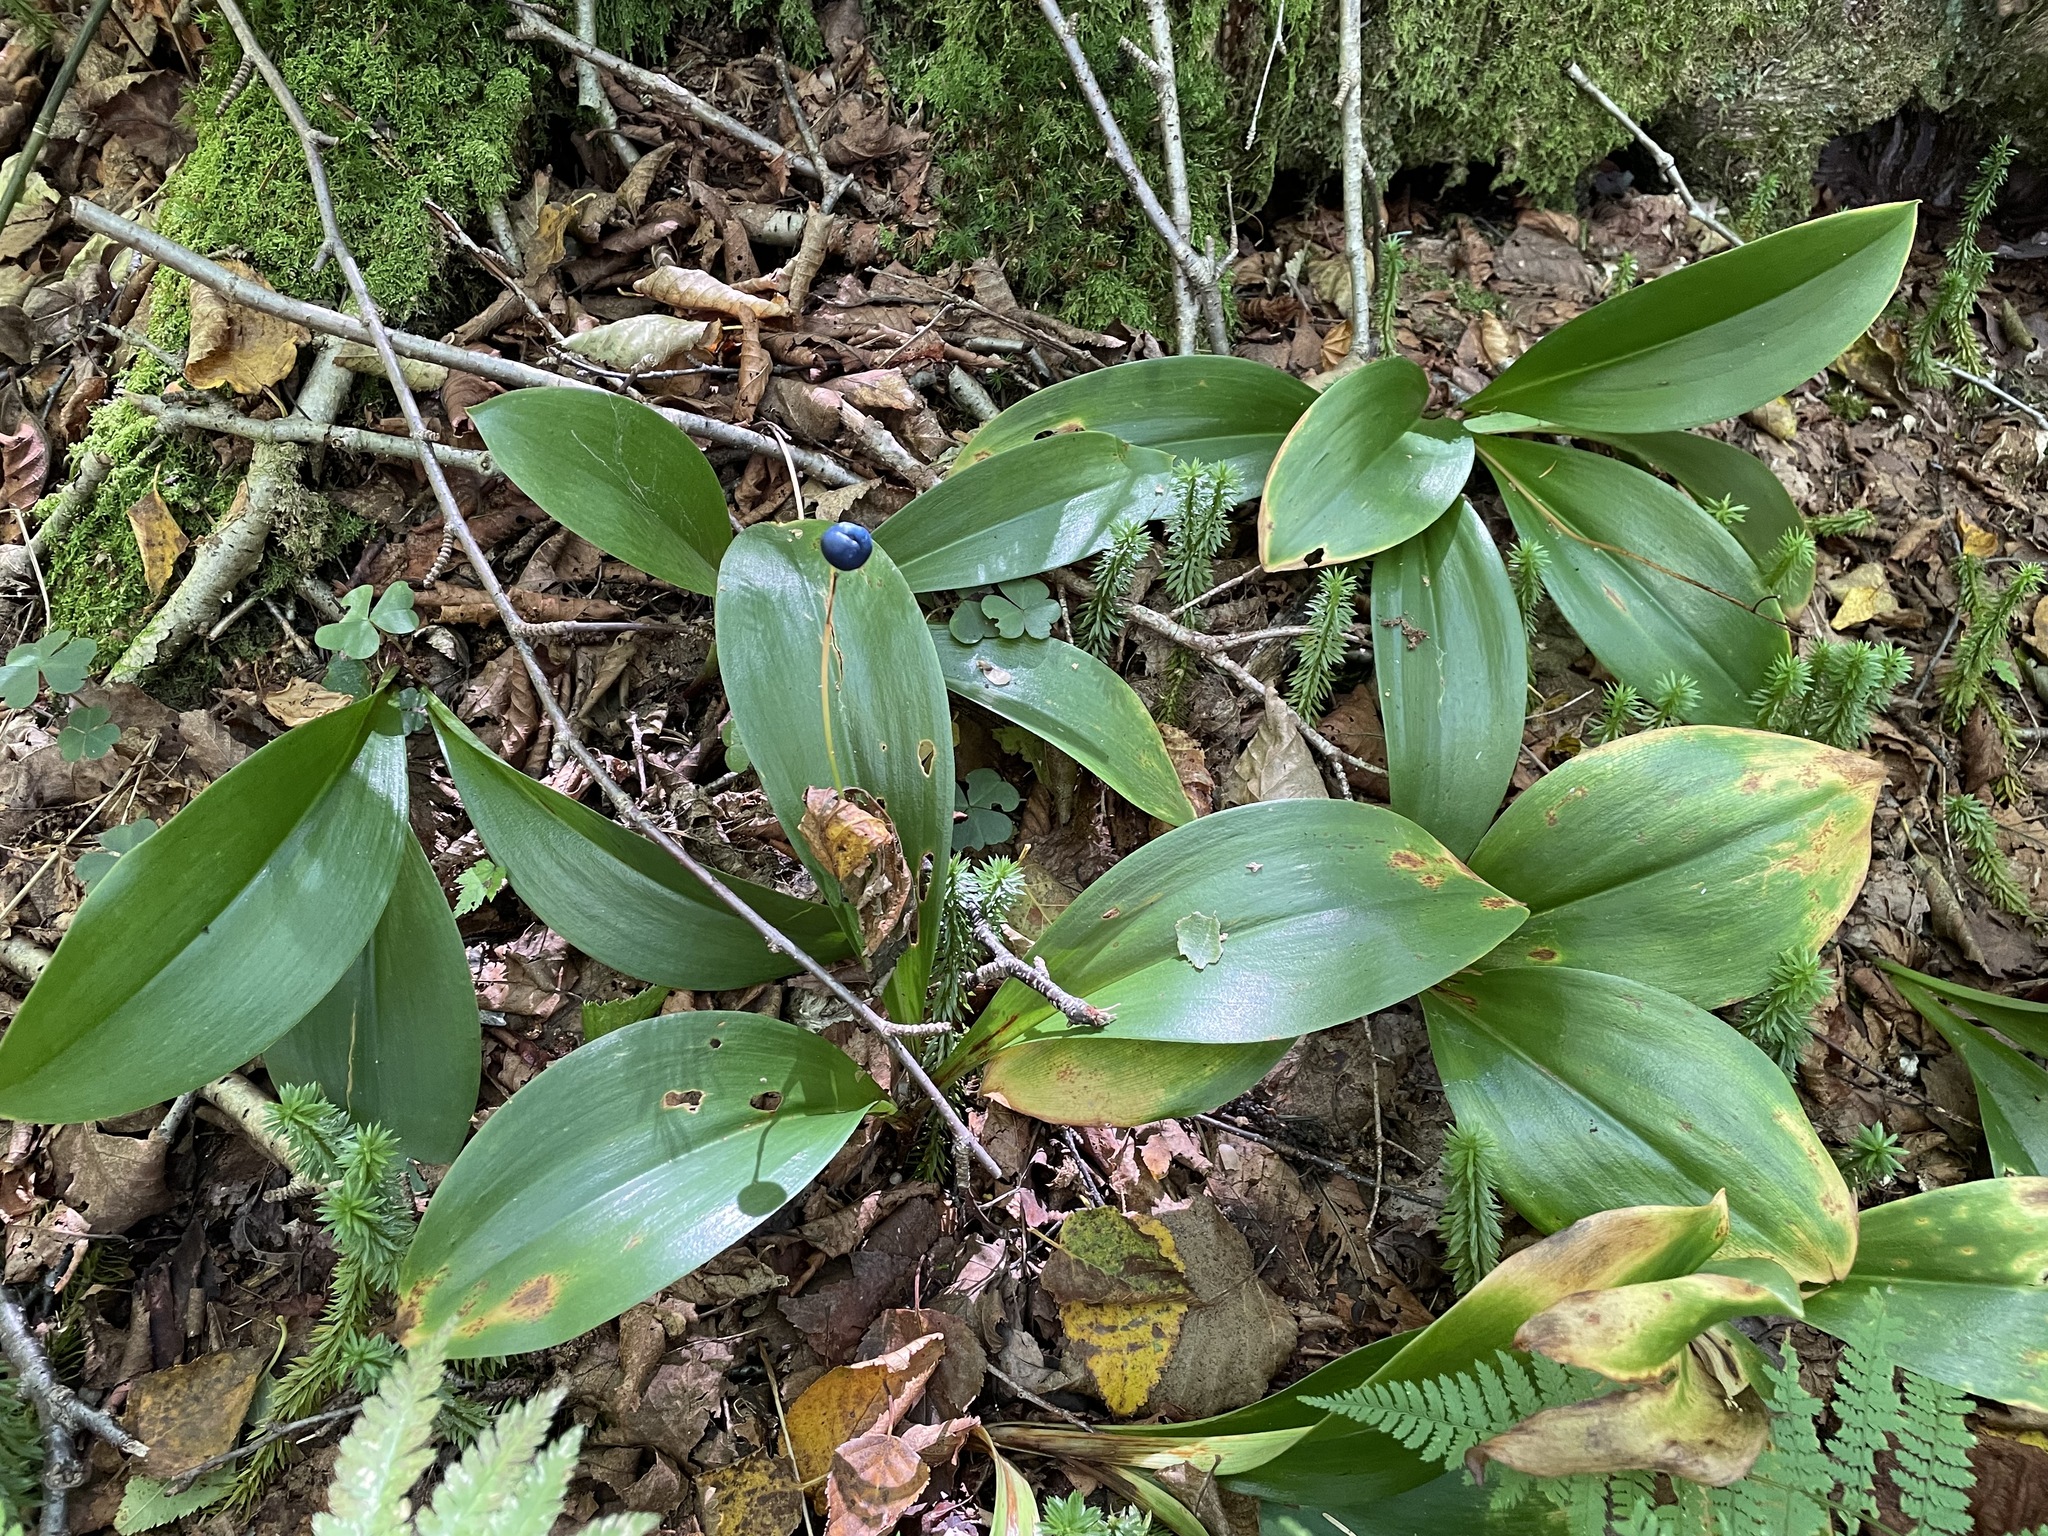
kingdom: Plantae
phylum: Tracheophyta
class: Liliopsida
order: Liliales
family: Liliaceae
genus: Clintonia
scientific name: Clintonia borealis
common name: Yellow clintonia
